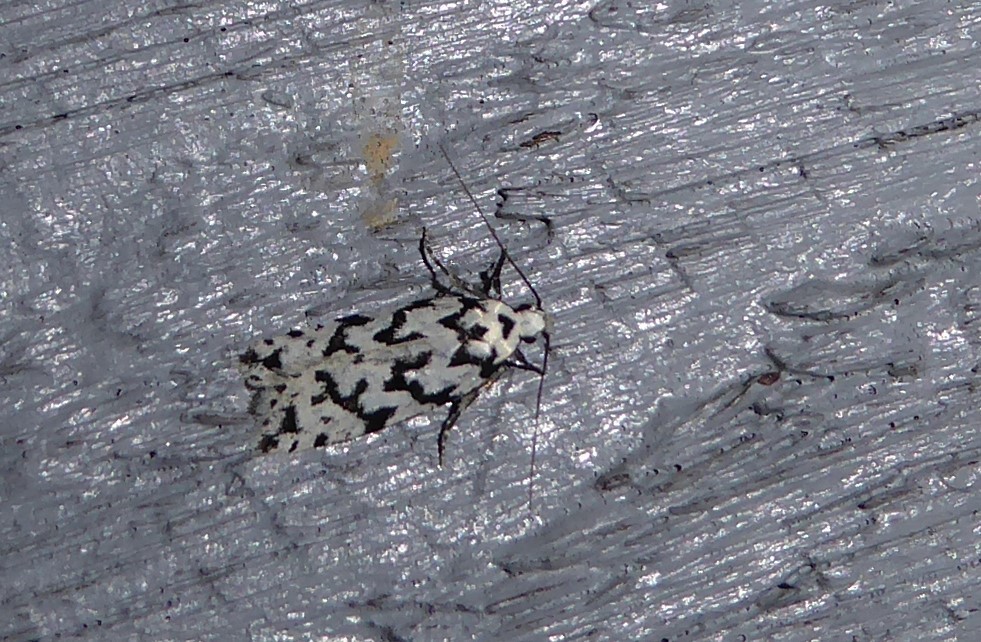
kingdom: Animalia
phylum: Arthropoda
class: Insecta
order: Lepidoptera
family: Oecophoridae
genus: Izatha
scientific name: Izatha katadiktya
